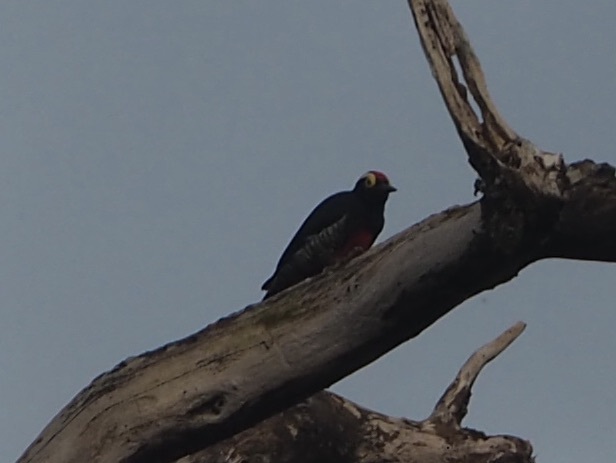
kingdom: Animalia
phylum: Chordata
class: Aves
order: Piciformes
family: Picidae
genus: Melanerpes
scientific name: Melanerpes cruentatus
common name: Yellow-tufted woodpecker
